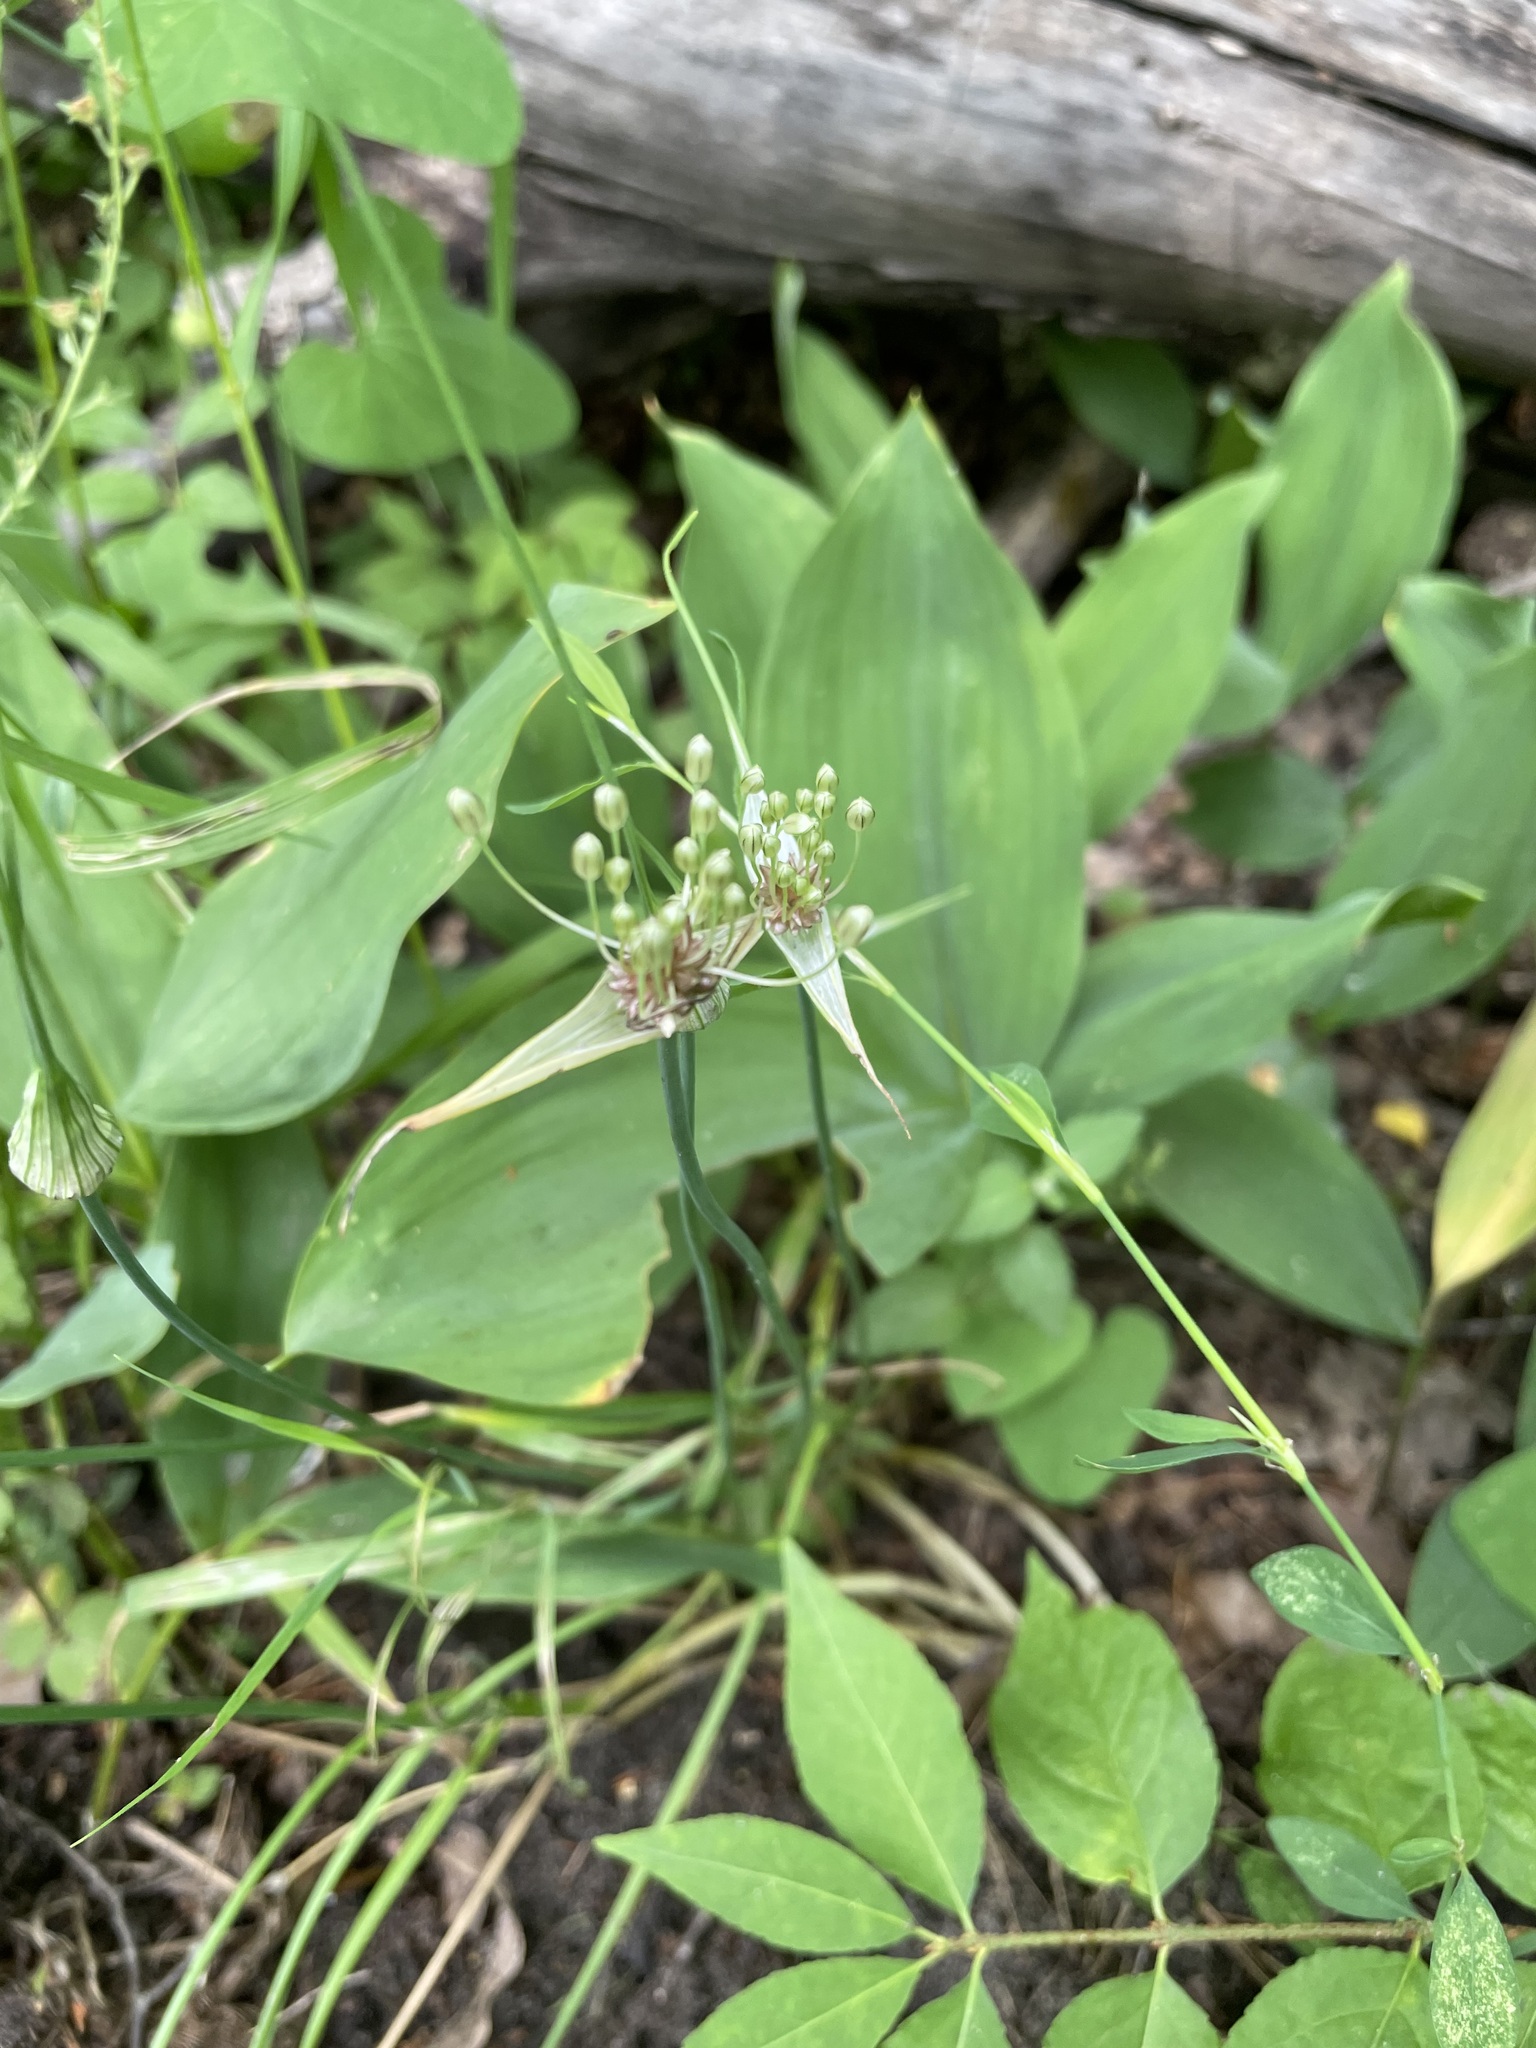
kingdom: Plantae
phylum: Tracheophyta
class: Liliopsida
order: Asparagales
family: Amaryllidaceae
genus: Allium
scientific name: Allium oleraceum
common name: Field garlic
